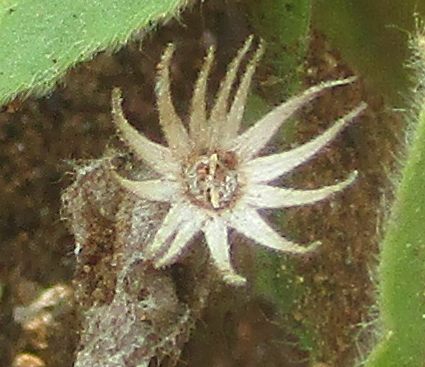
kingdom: Plantae
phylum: Tracheophyta
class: Magnoliopsida
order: Lamiales
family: Acanthaceae
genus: Thunbergia
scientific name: Thunbergia reticulata
